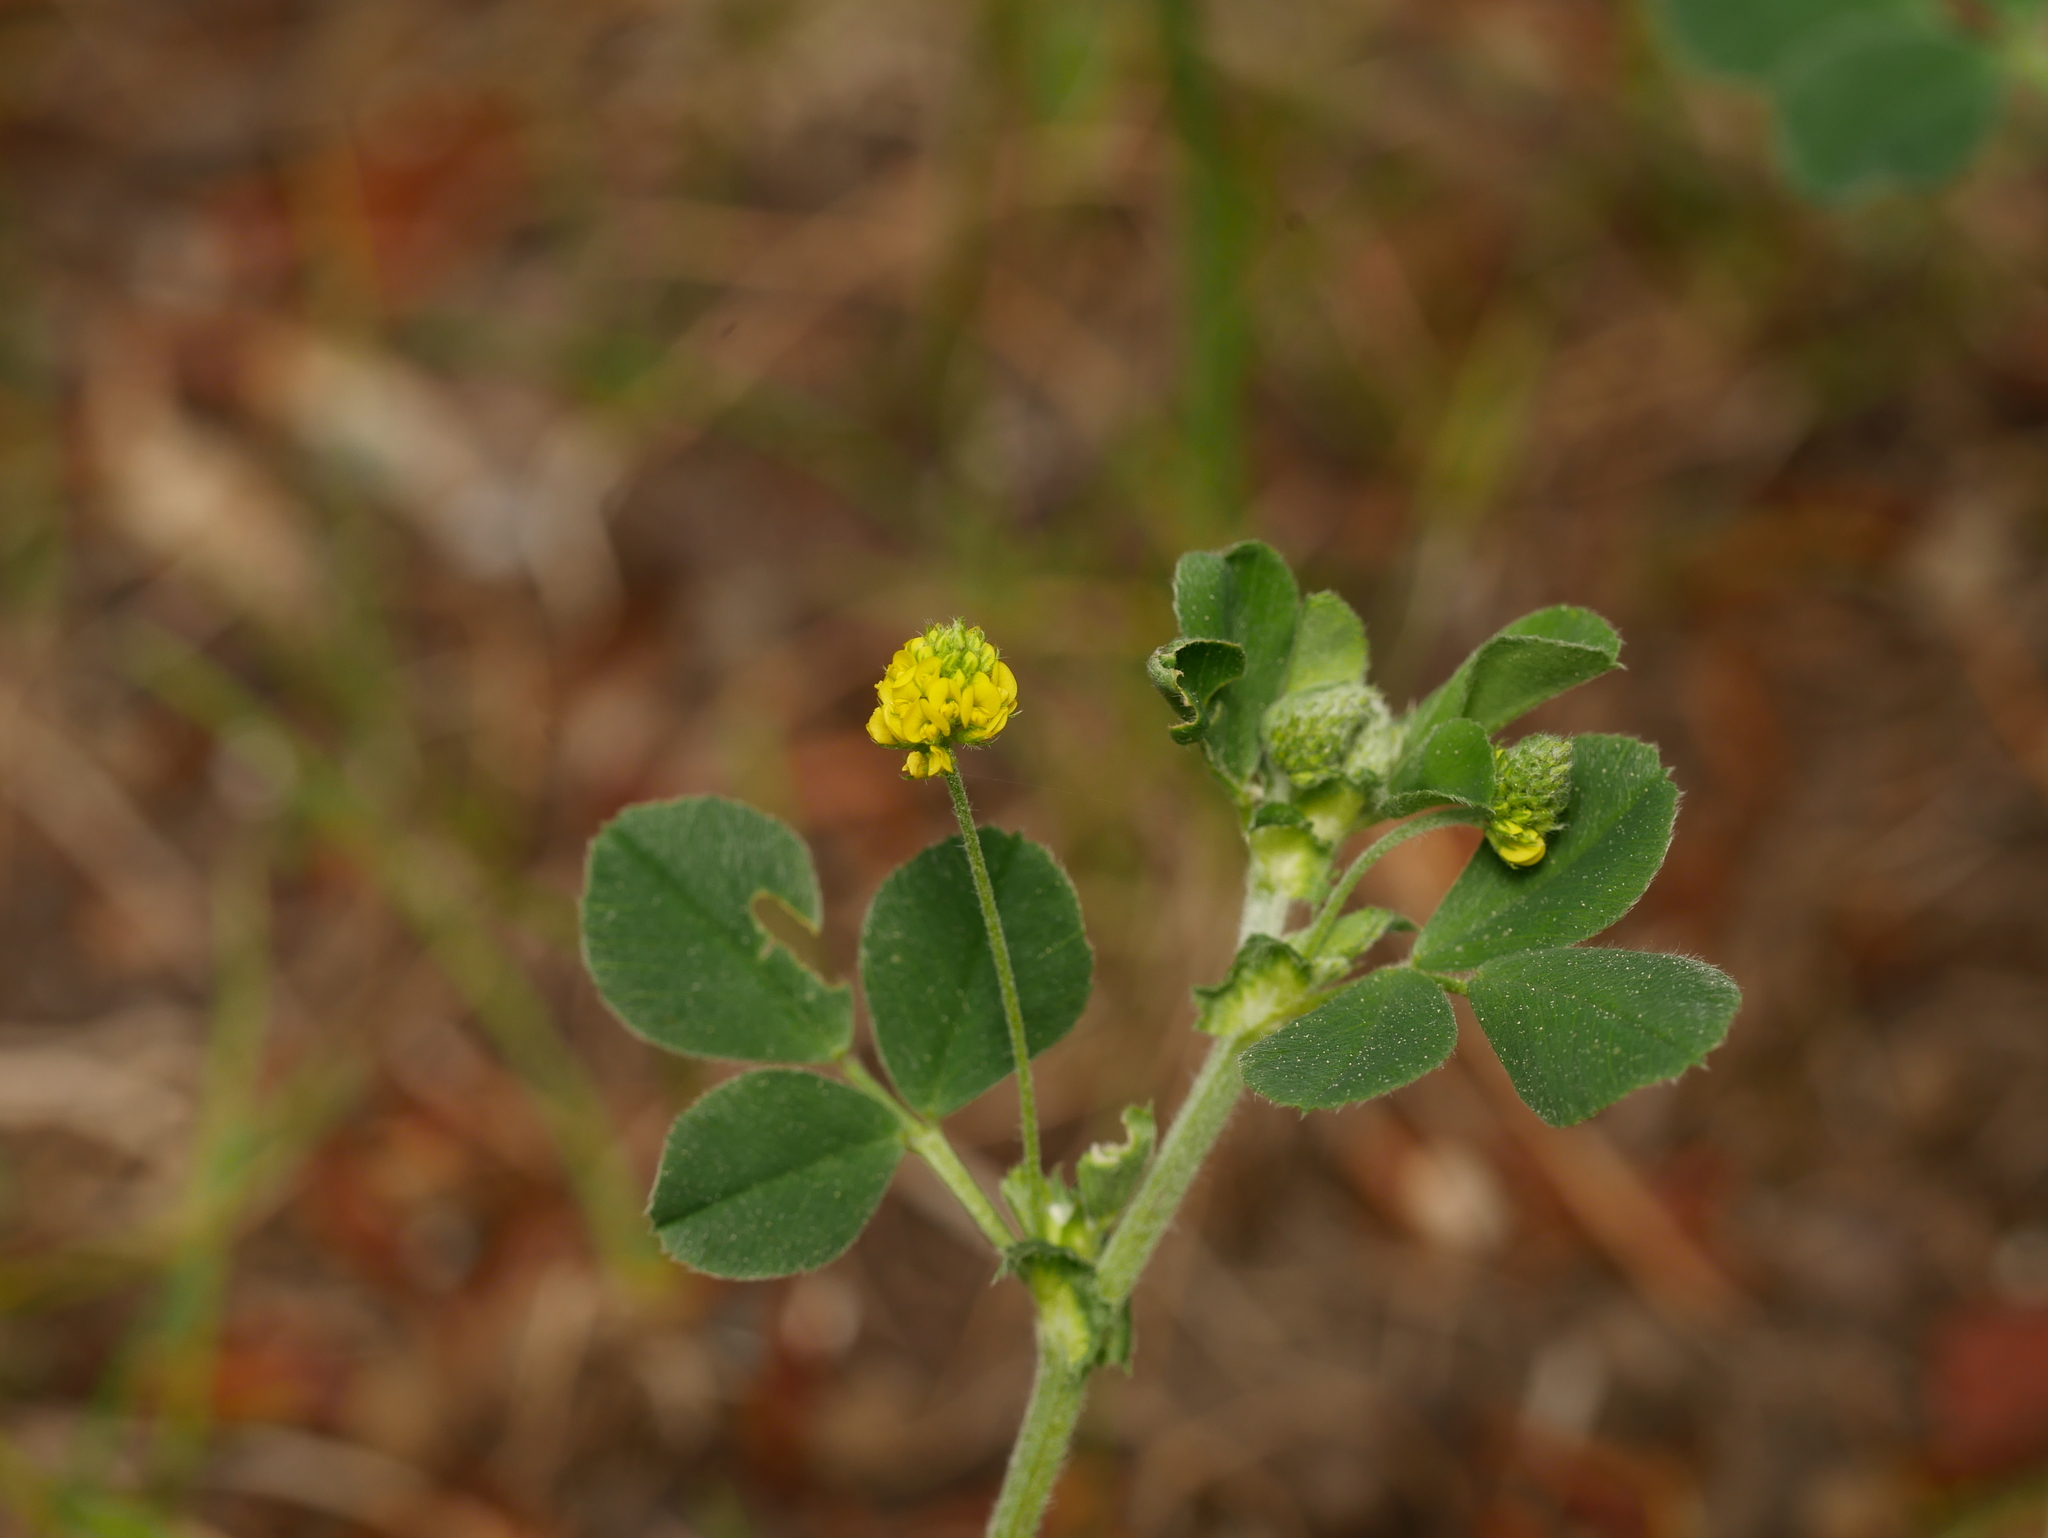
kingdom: Plantae
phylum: Tracheophyta
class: Magnoliopsida
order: Fabales
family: Fabaceae
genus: Medicago
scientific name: Medicago lupulina
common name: Black medick
